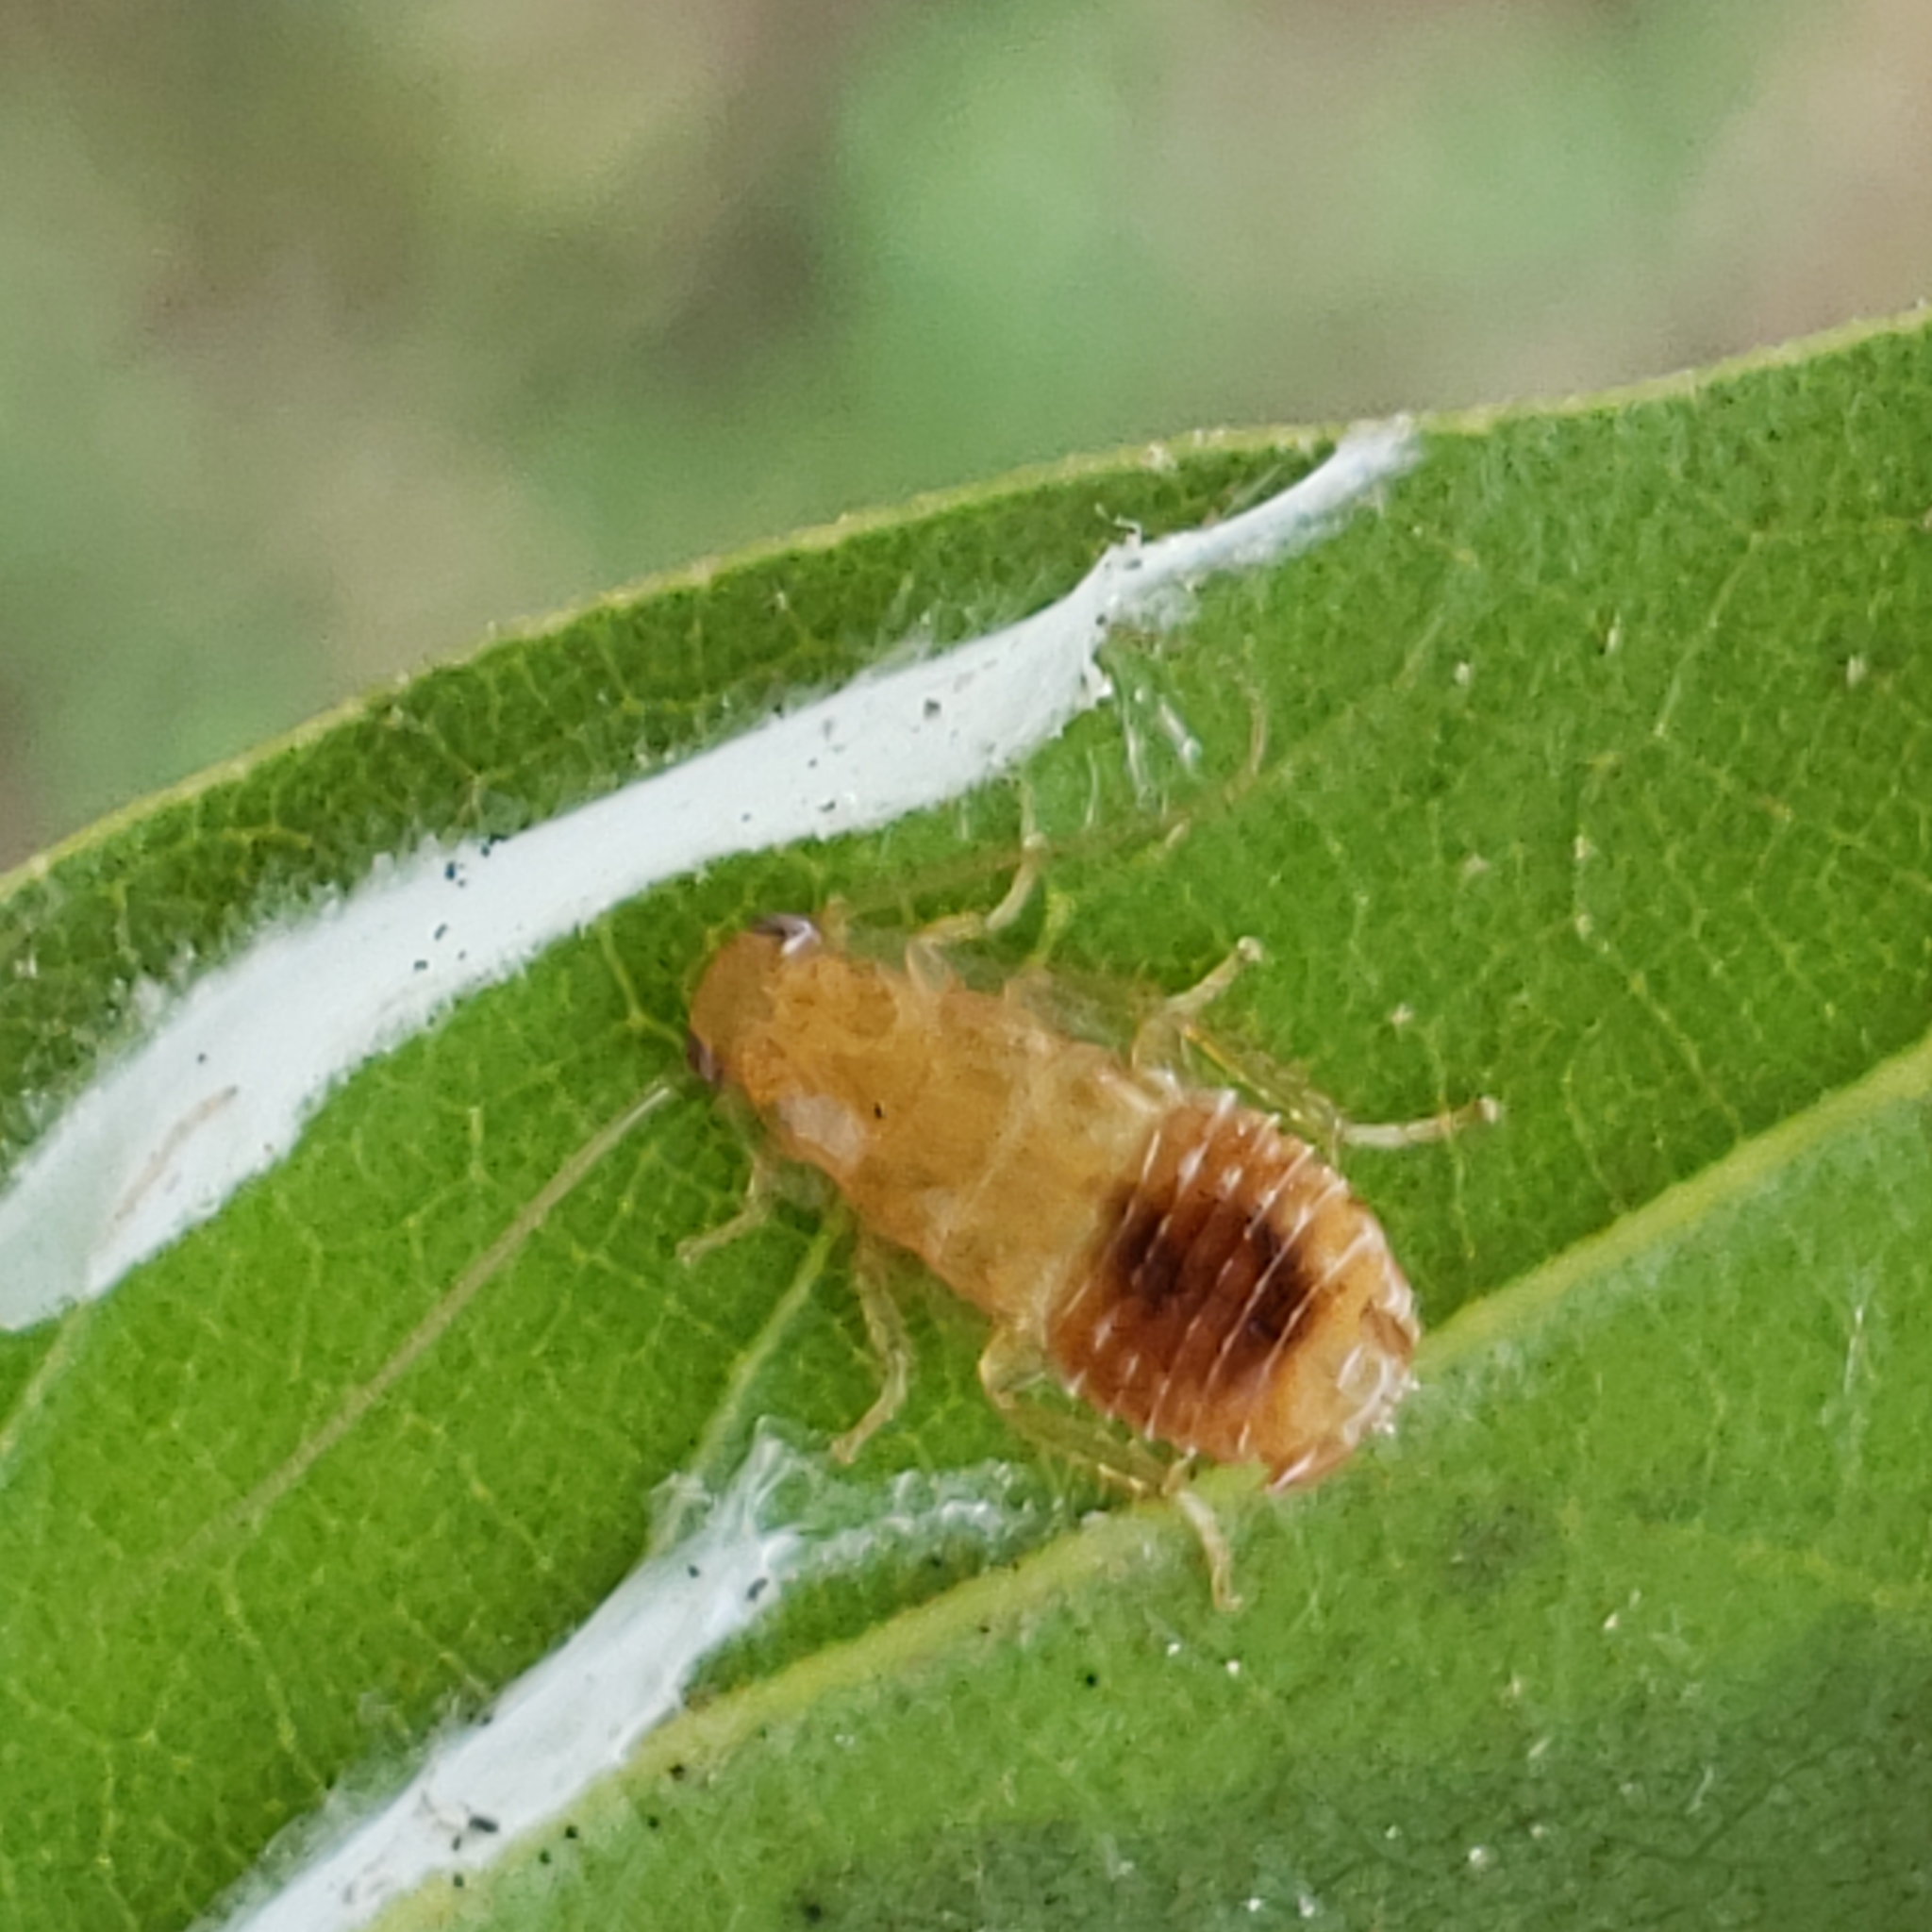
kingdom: Animalia
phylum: Arthropoda
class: Insecta
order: Blattodea
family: Ectobiidae
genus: Chorisoneura
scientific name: Chorisoneura texensis
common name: Small texas cockroach
